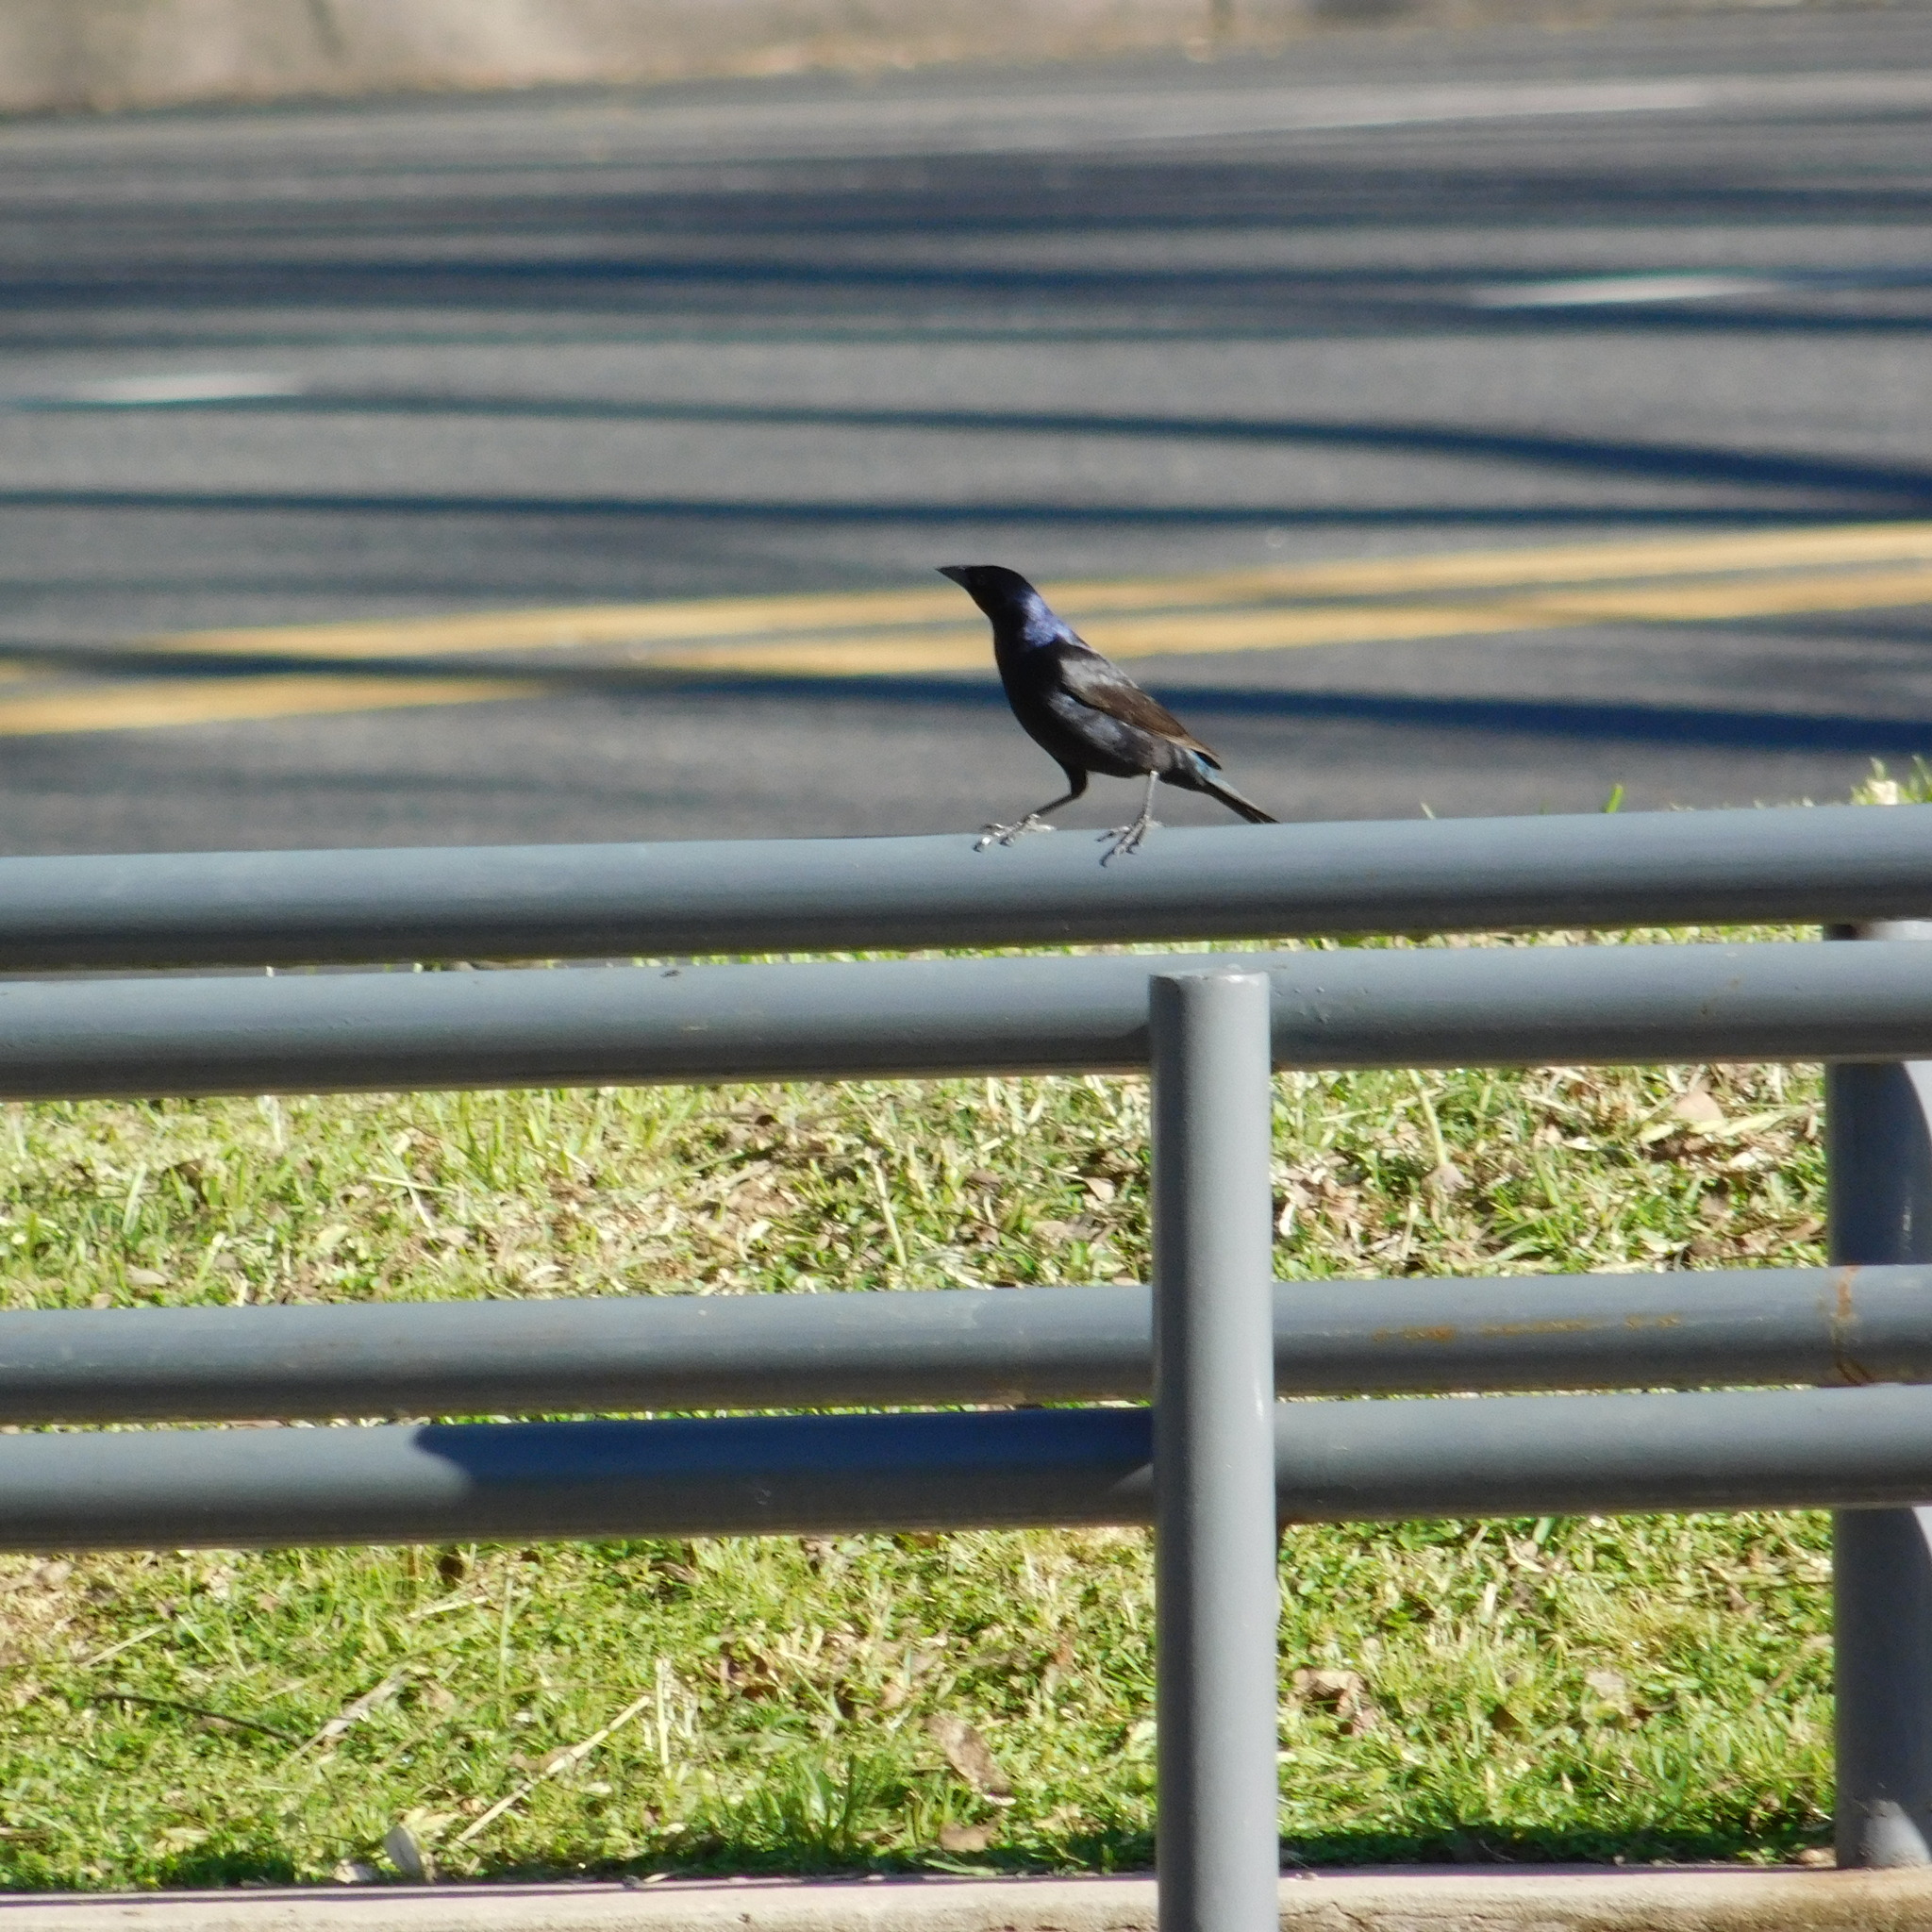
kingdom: Animalia
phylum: Chordata
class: Aves
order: Passeriformes
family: Icteridae
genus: Molothrus
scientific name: Molothrus bonariensis
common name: Shiny cowbird
